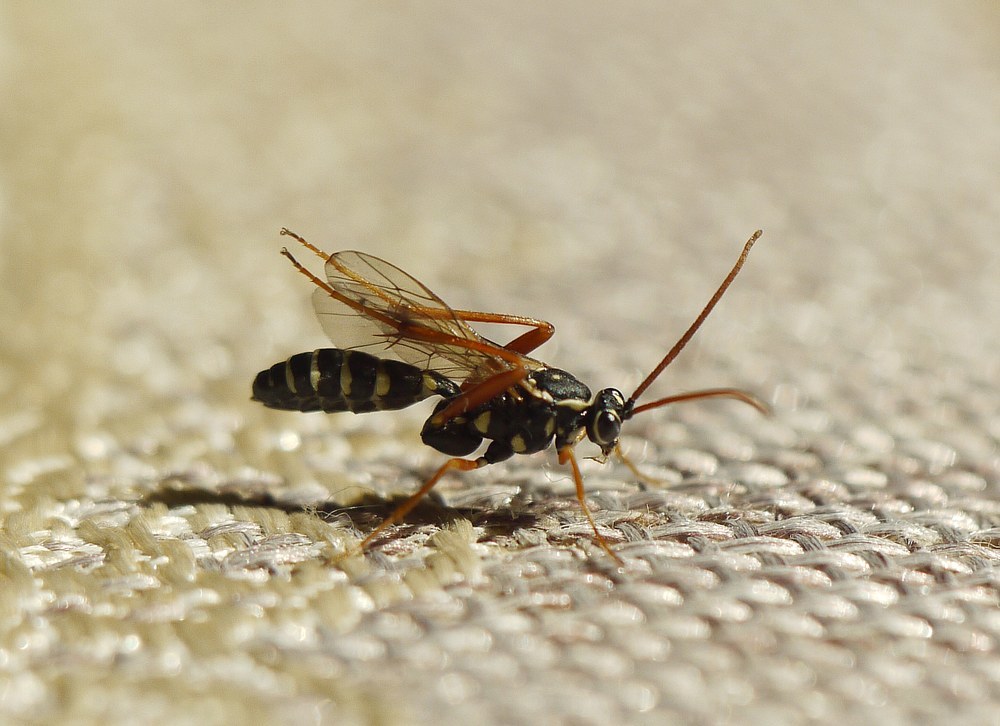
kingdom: Animalia
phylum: Arthropoda
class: Insecta
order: Hymenoptera
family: Ichneumonidae
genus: Latibulus
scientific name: Latibulus argiolus
